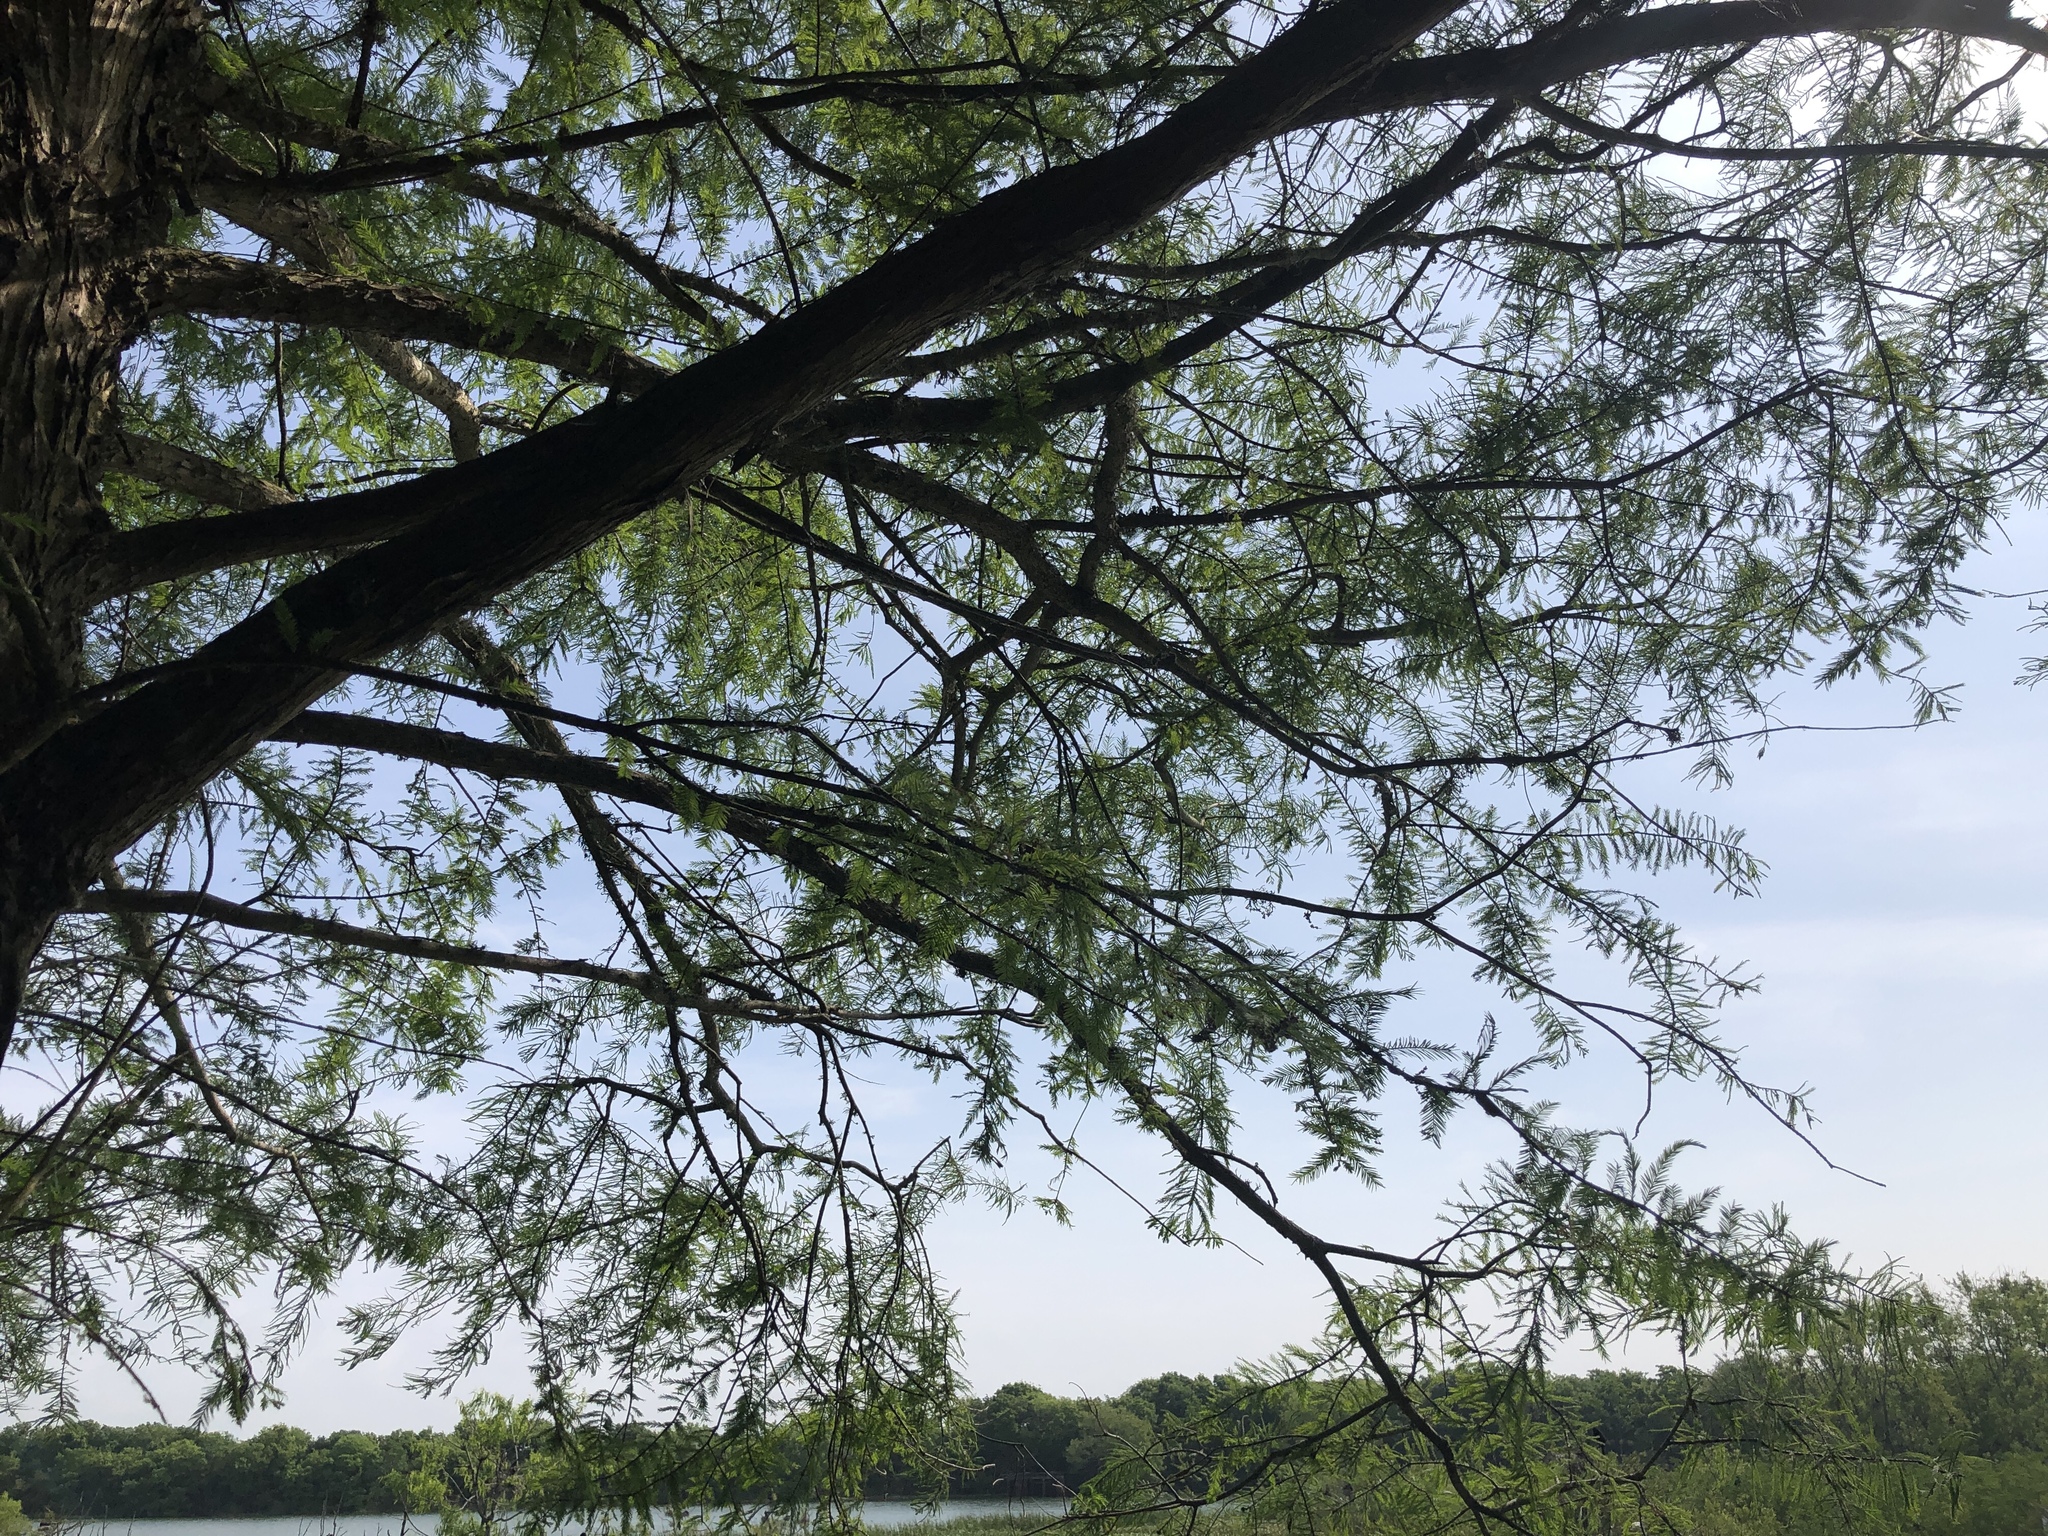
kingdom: Plantae
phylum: Tracheophyta
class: Pinopsida
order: Pinales
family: Cupressaceae
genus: Taxodium
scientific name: Taxodium distichum
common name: Bald cypress
